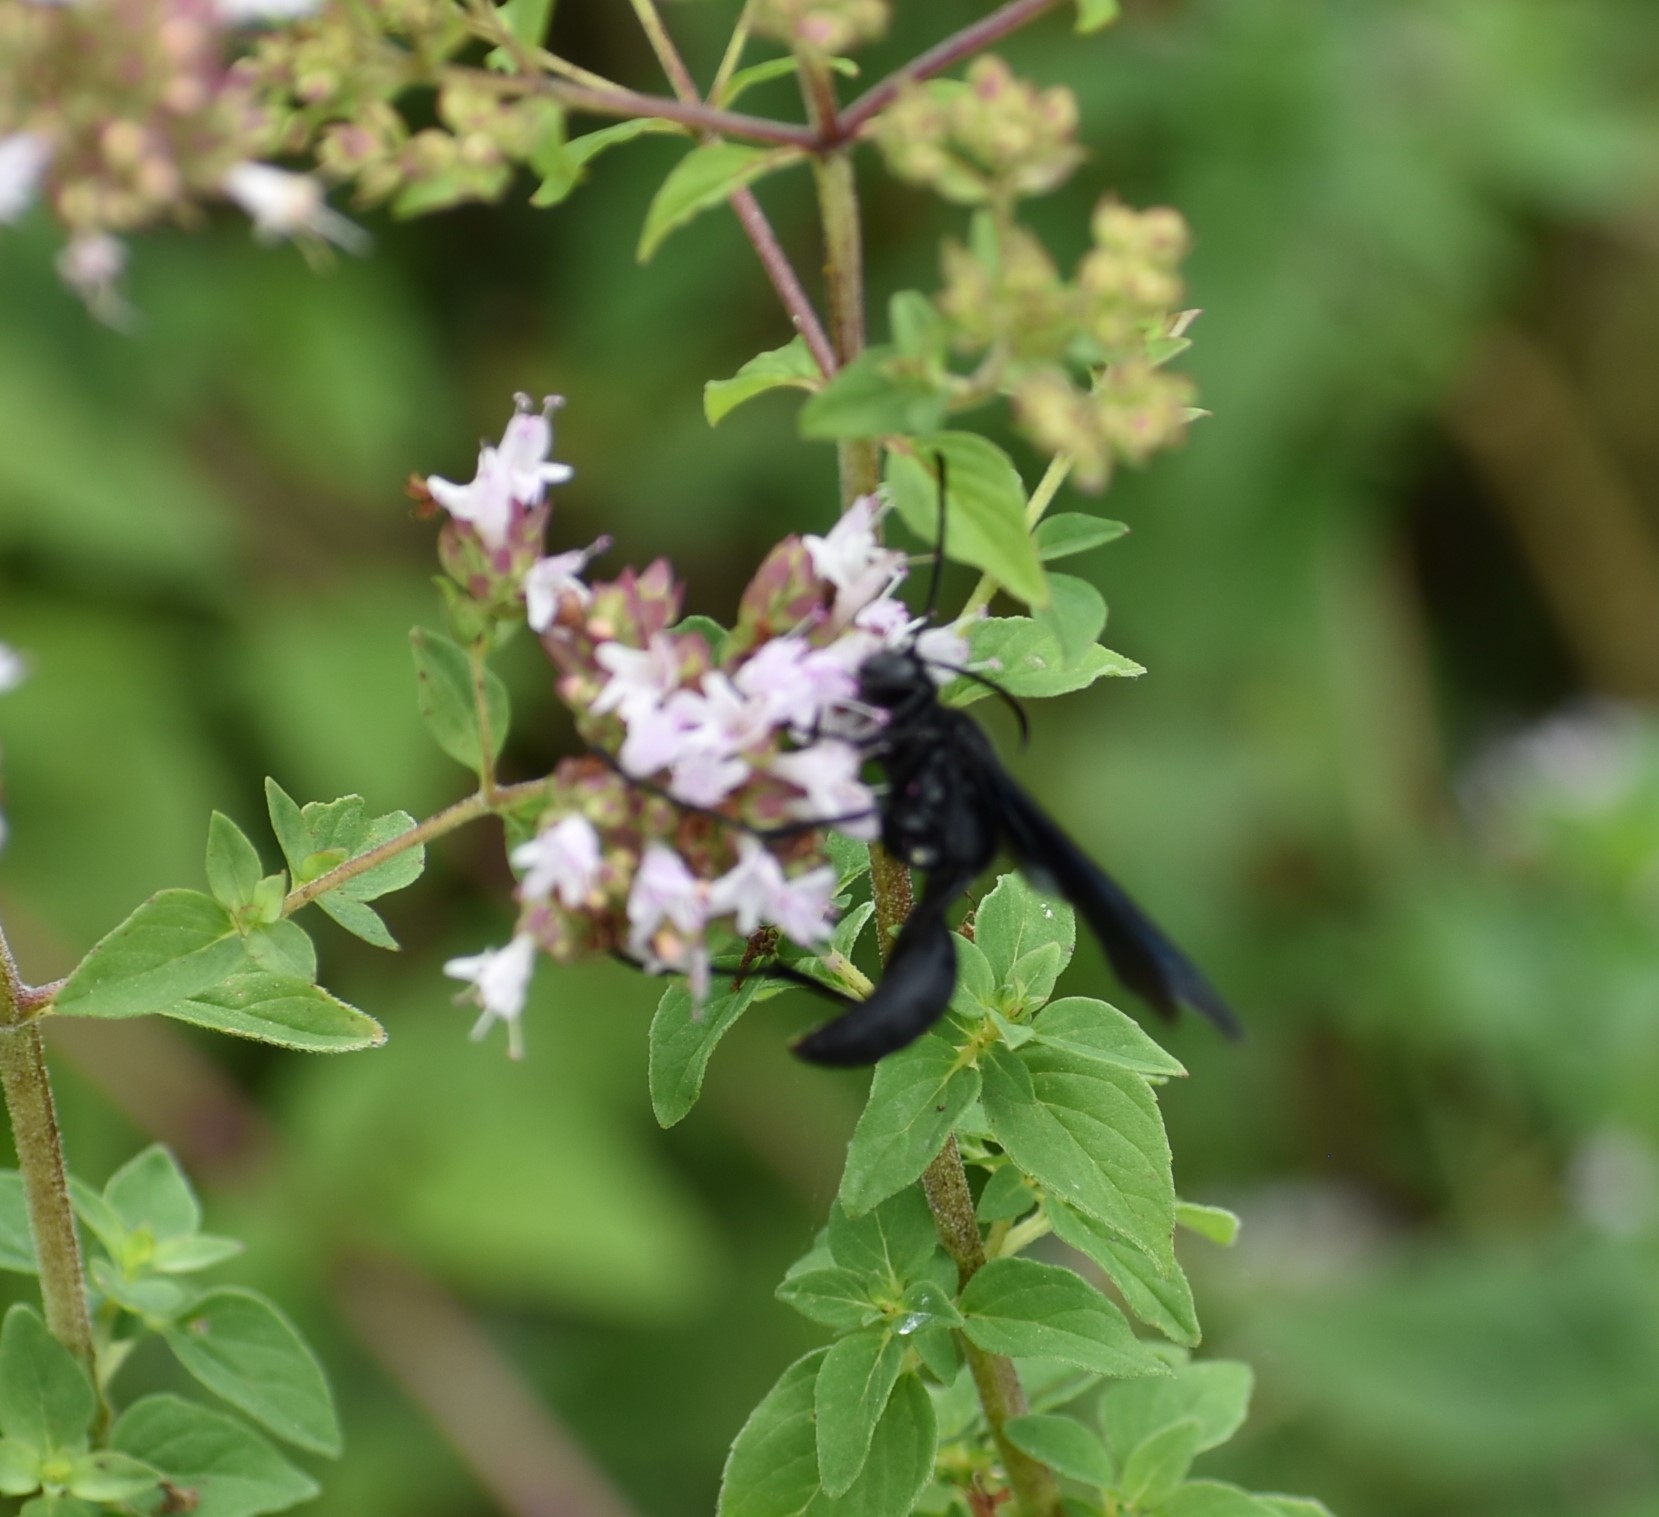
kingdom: Animalia
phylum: Arthropoda
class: Insecta
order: Hymenoptera
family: Sphecidae
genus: Sphex
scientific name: Sphex pensylvanicus
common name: Great black digger wasp
